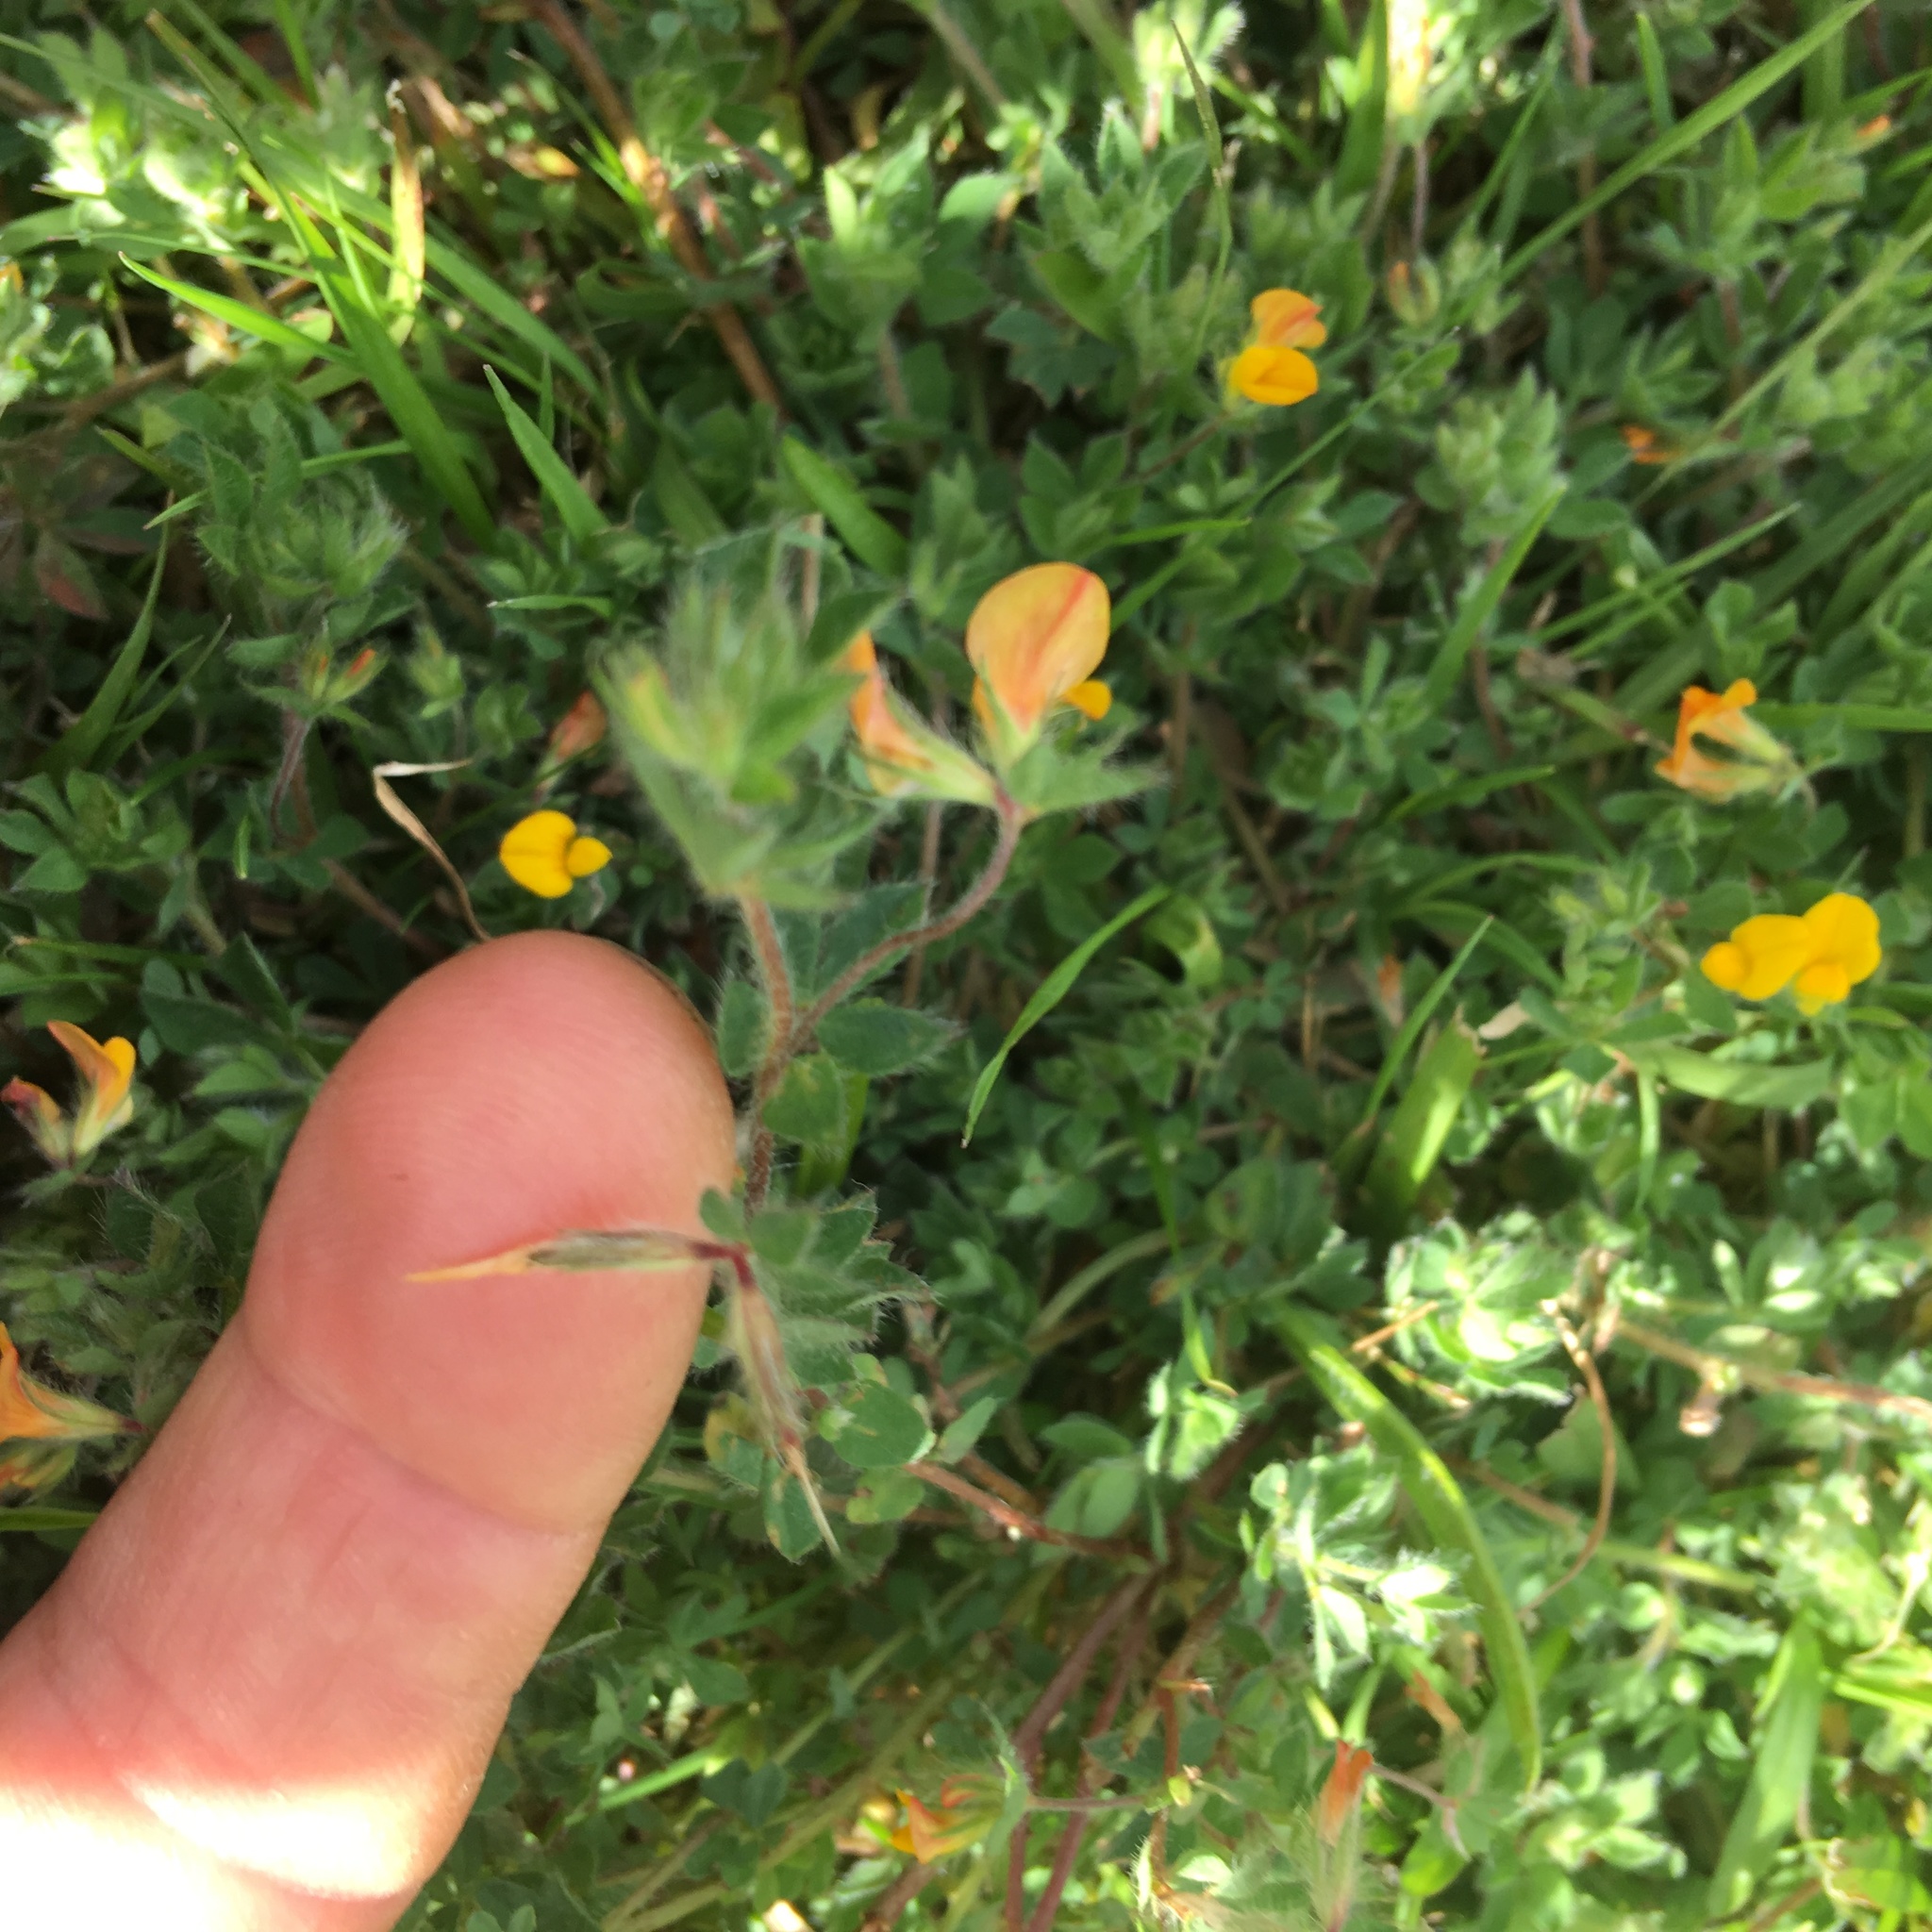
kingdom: Plantae
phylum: Tracheophyta
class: Magnoliopsida
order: Fabales
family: Fabaceae
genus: Lotus
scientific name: Lotus subbiflorus
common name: Hairy bird's-foot trefoil
